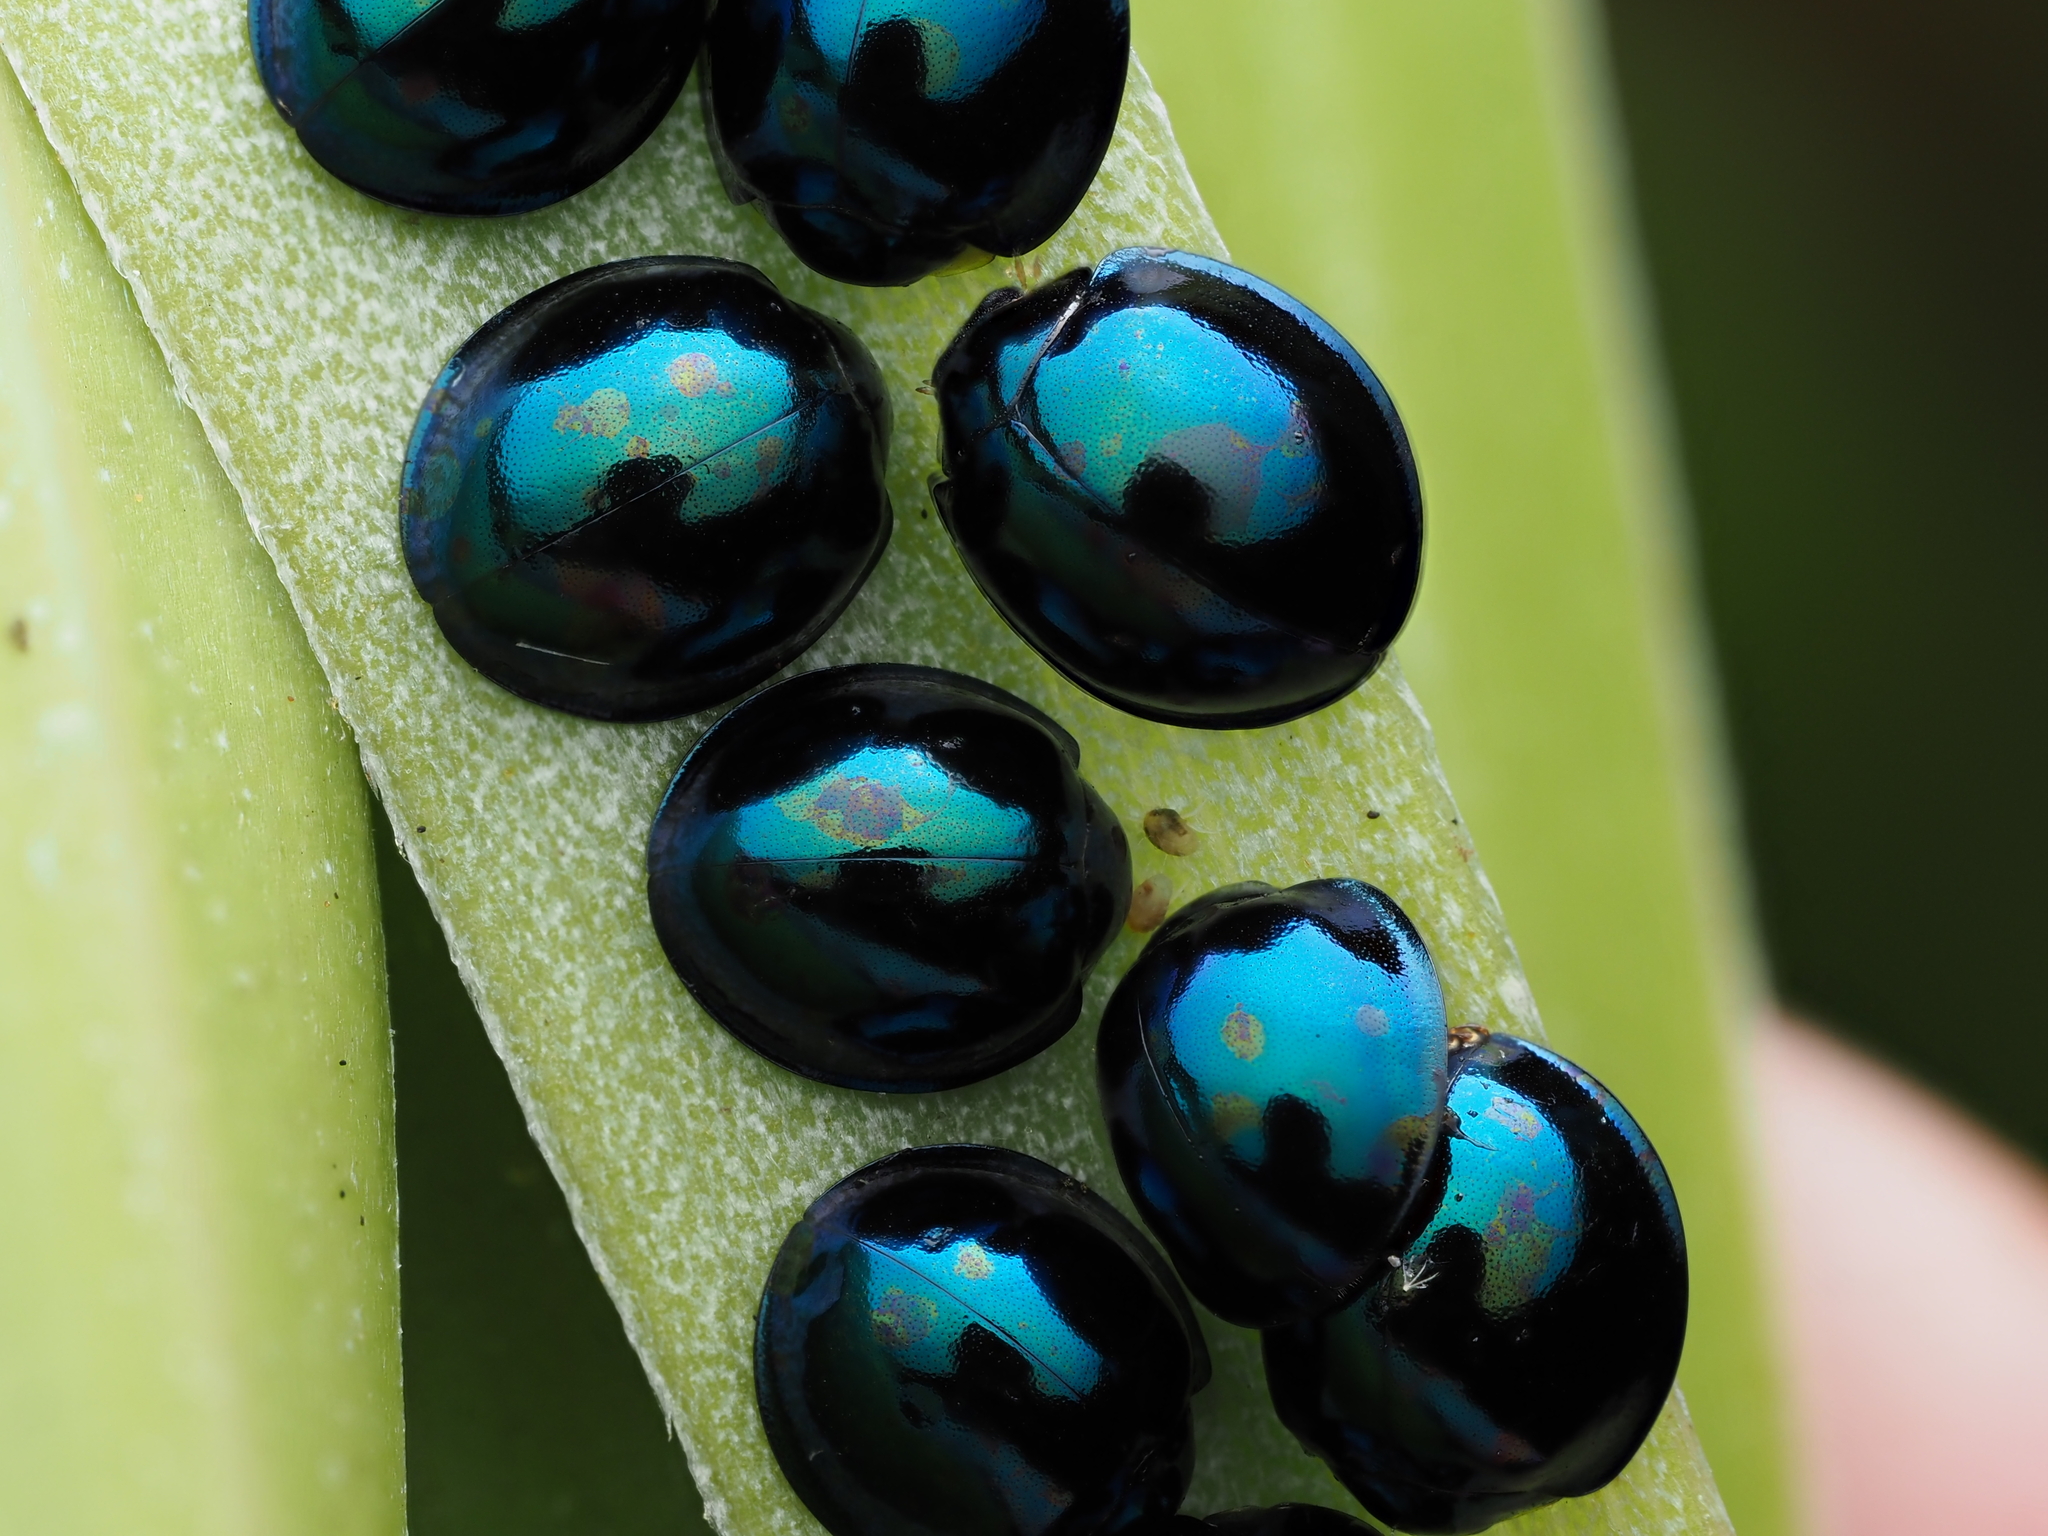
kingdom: Animalia
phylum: Arthropoda
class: Insecta
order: Coleoptera
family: Coccinellidae
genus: Halmus
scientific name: Halmus chalybeus
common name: Steel blue ladybird beetle
